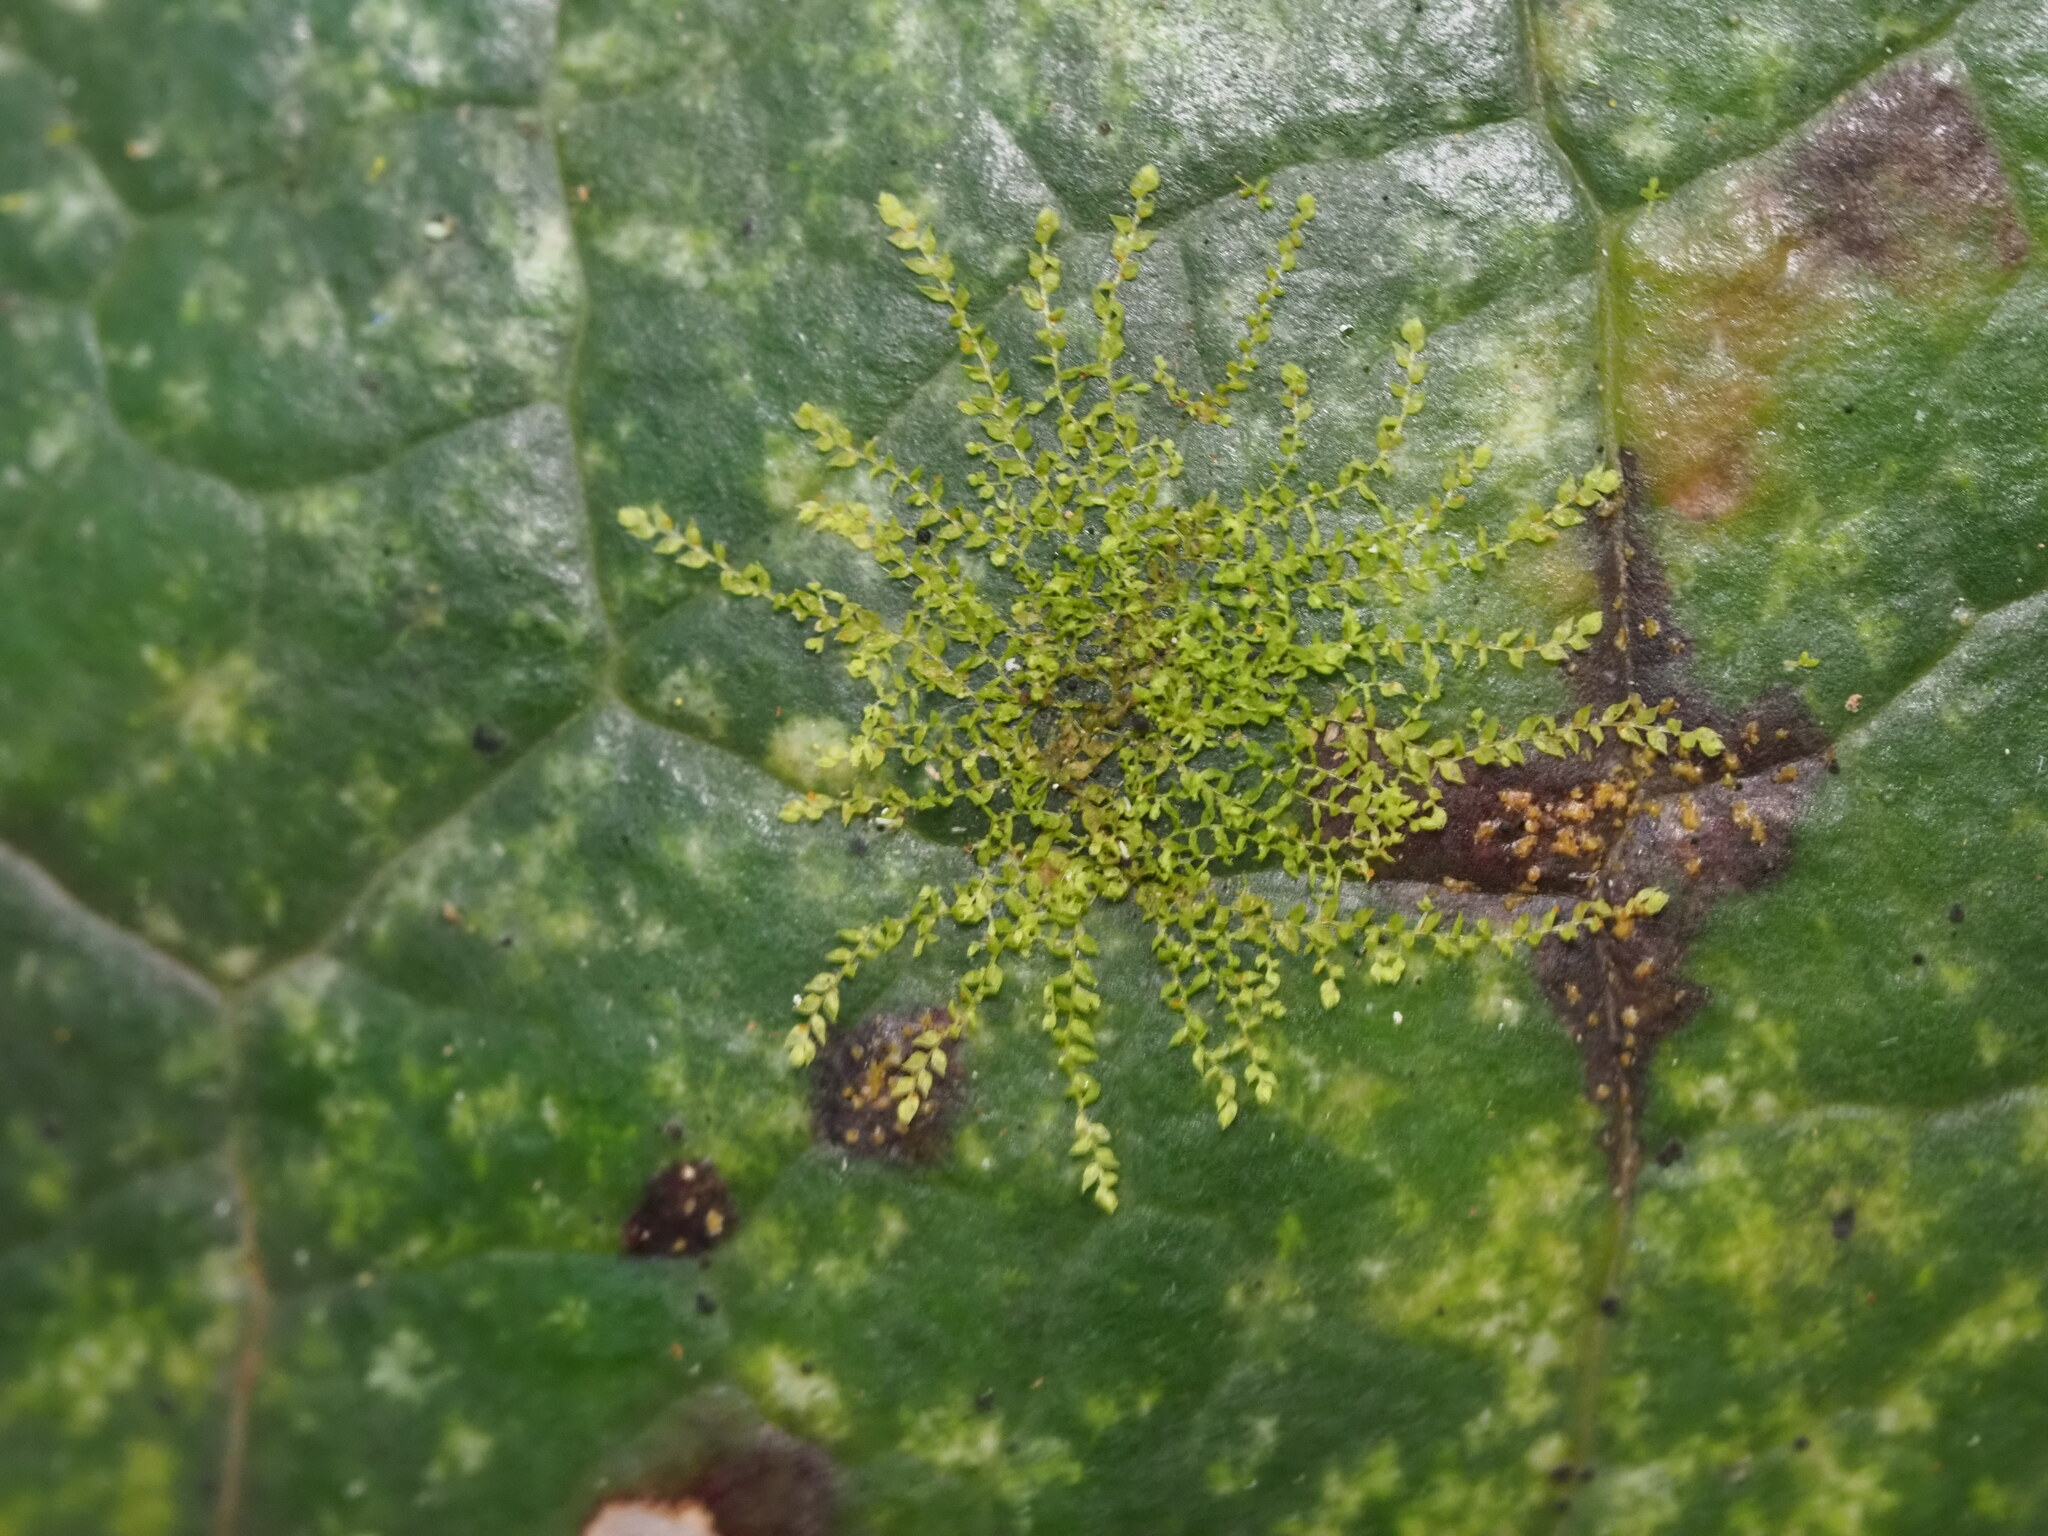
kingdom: Plantae
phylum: Marchantiophyta
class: Jungermanniopsida
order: Porellales
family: Lejeuneaceae
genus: Drepanolejeunea
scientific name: Drepanolejeunea anderssonii
